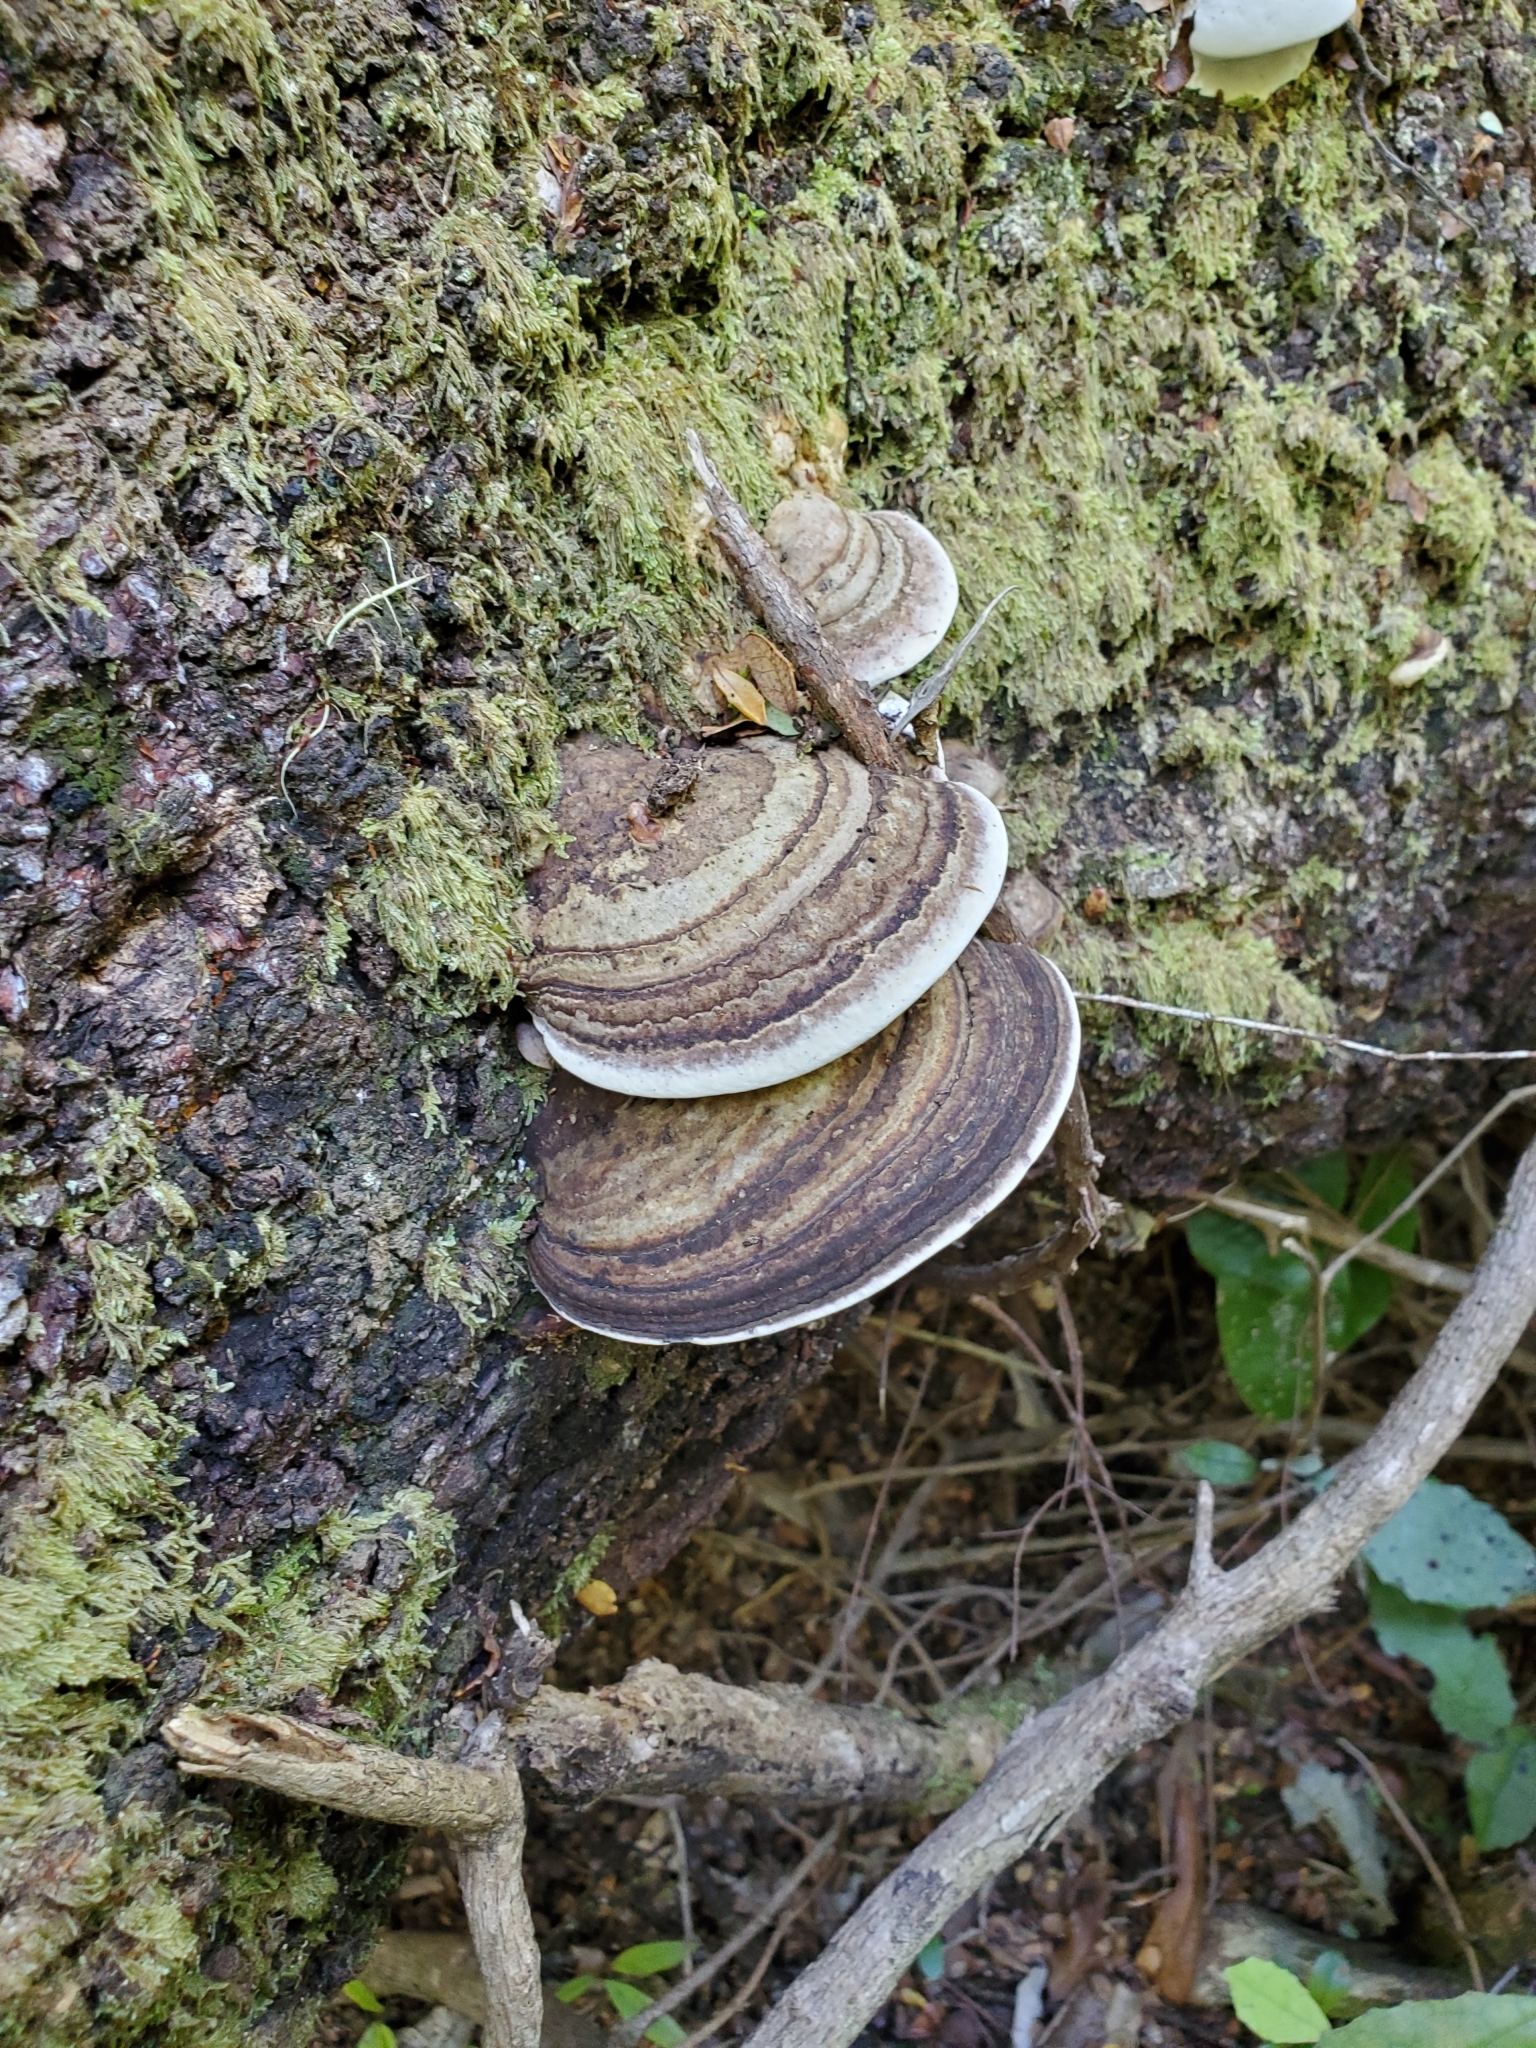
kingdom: Fungi
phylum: Basidiomycota
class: Agaricomycetes
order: Polyporales
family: Fomitopsidaceae
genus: Pilatoporus
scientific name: Pilatoporus hemitephrus
